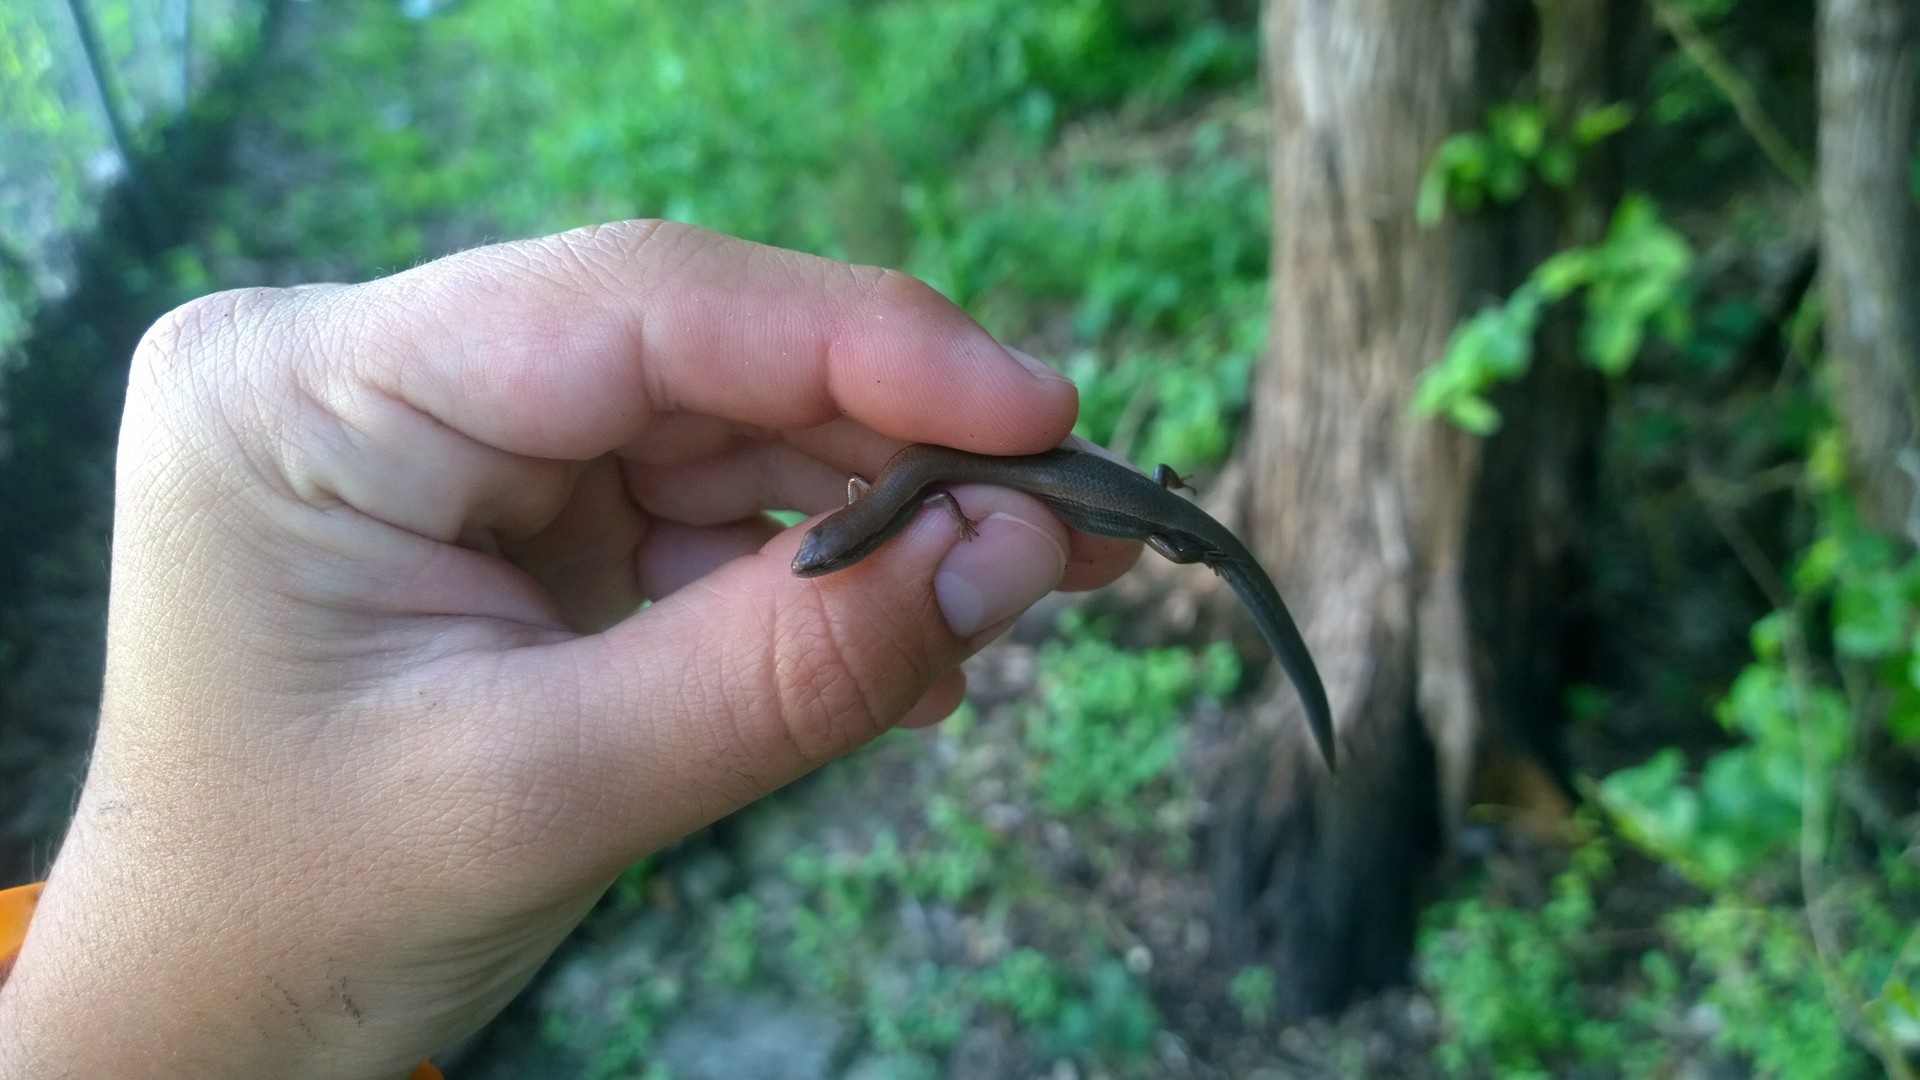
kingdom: Animalia
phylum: Chordata
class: Squamata
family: Scincidae
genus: Scincella
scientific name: Scincella lateralis
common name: Ground skink
